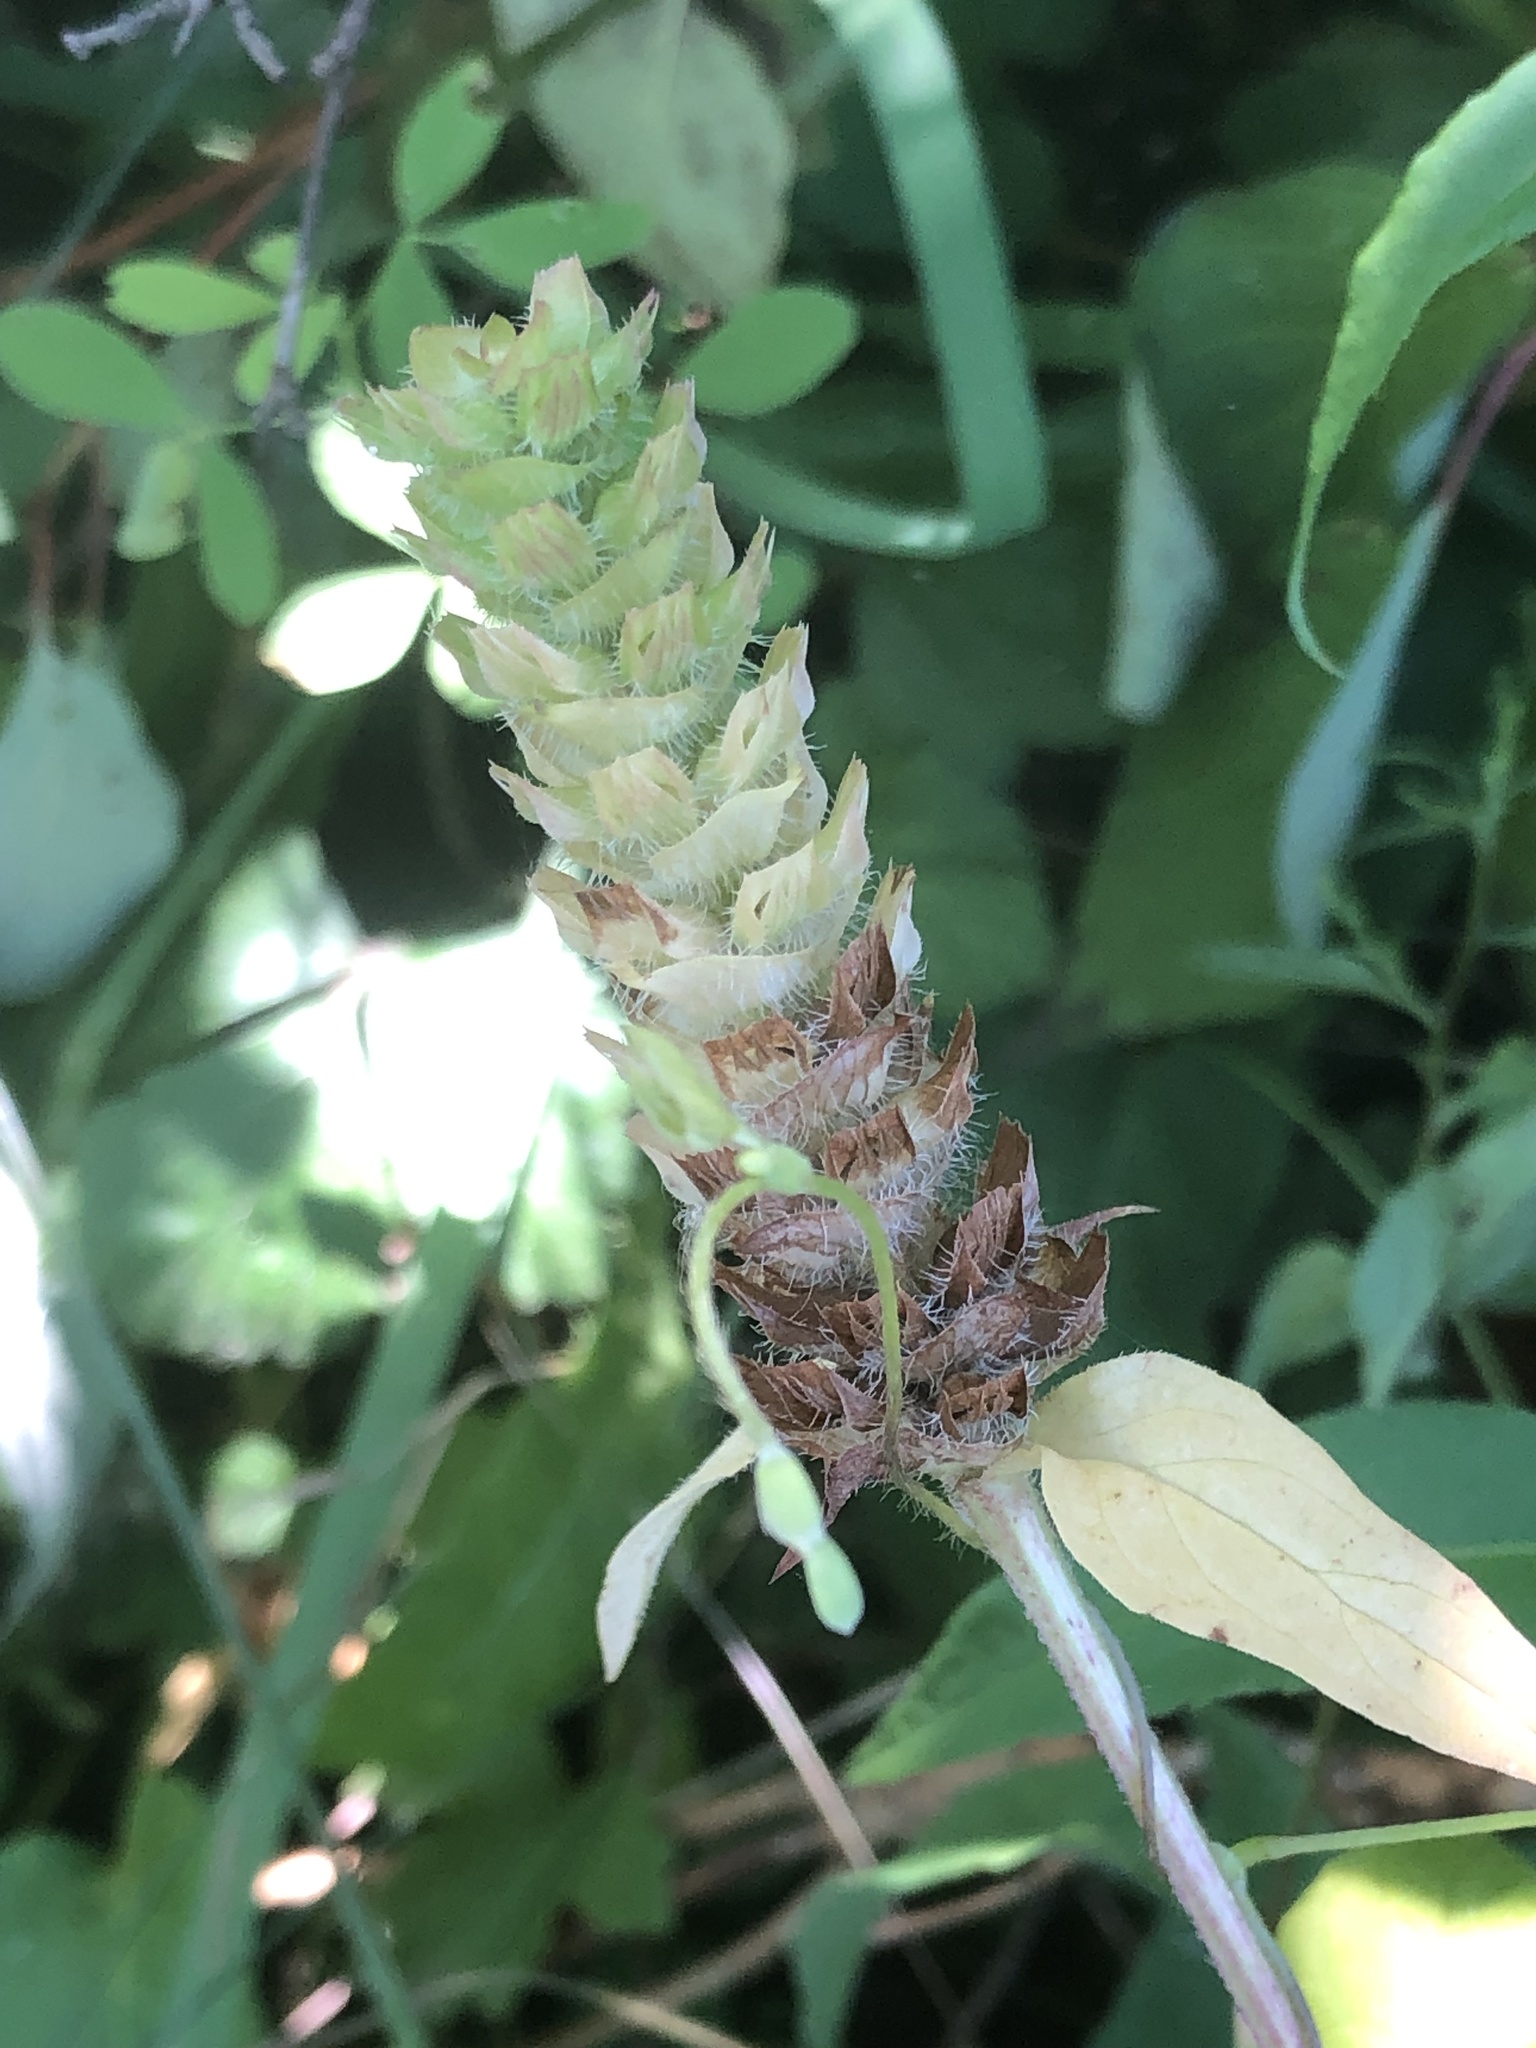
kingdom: Plantae
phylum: Tracheophyta
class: Magnoliopsida
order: Lamiales
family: Lamiaceae
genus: Prunella
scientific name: Prunella vulgaris
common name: Heal-all
